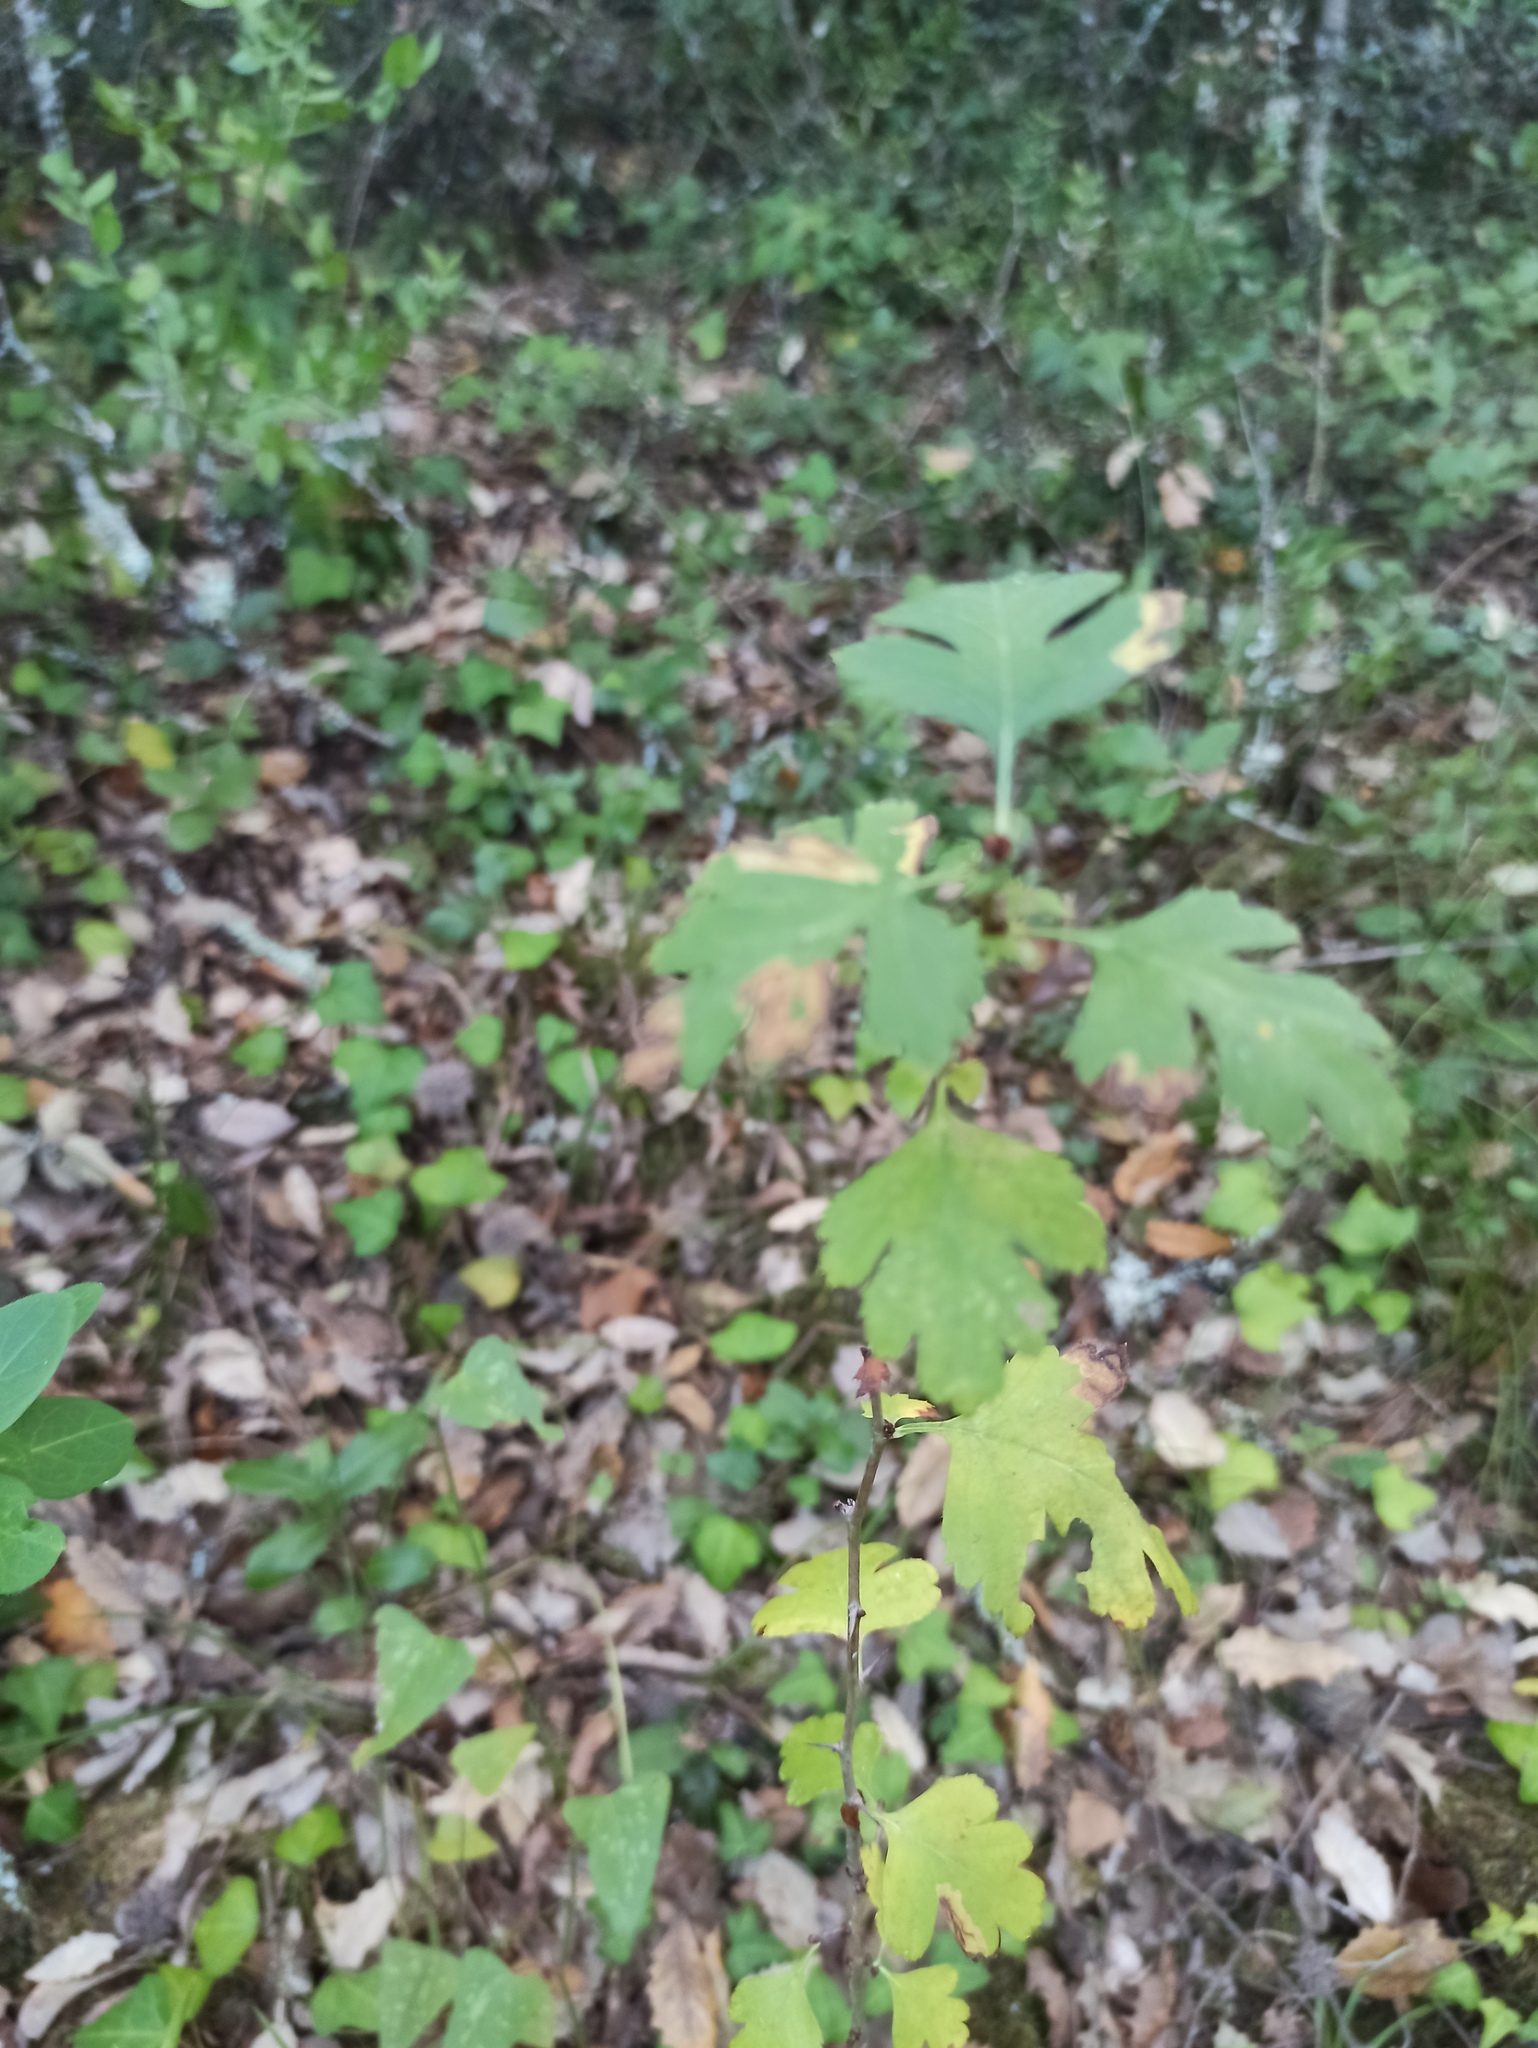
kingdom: Plantae
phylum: Tracheophyta
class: Magnoliopsida
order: Rosales
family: Rosaceae
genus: Crataegus
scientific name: Crataegus monogyna
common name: Hawthorn
